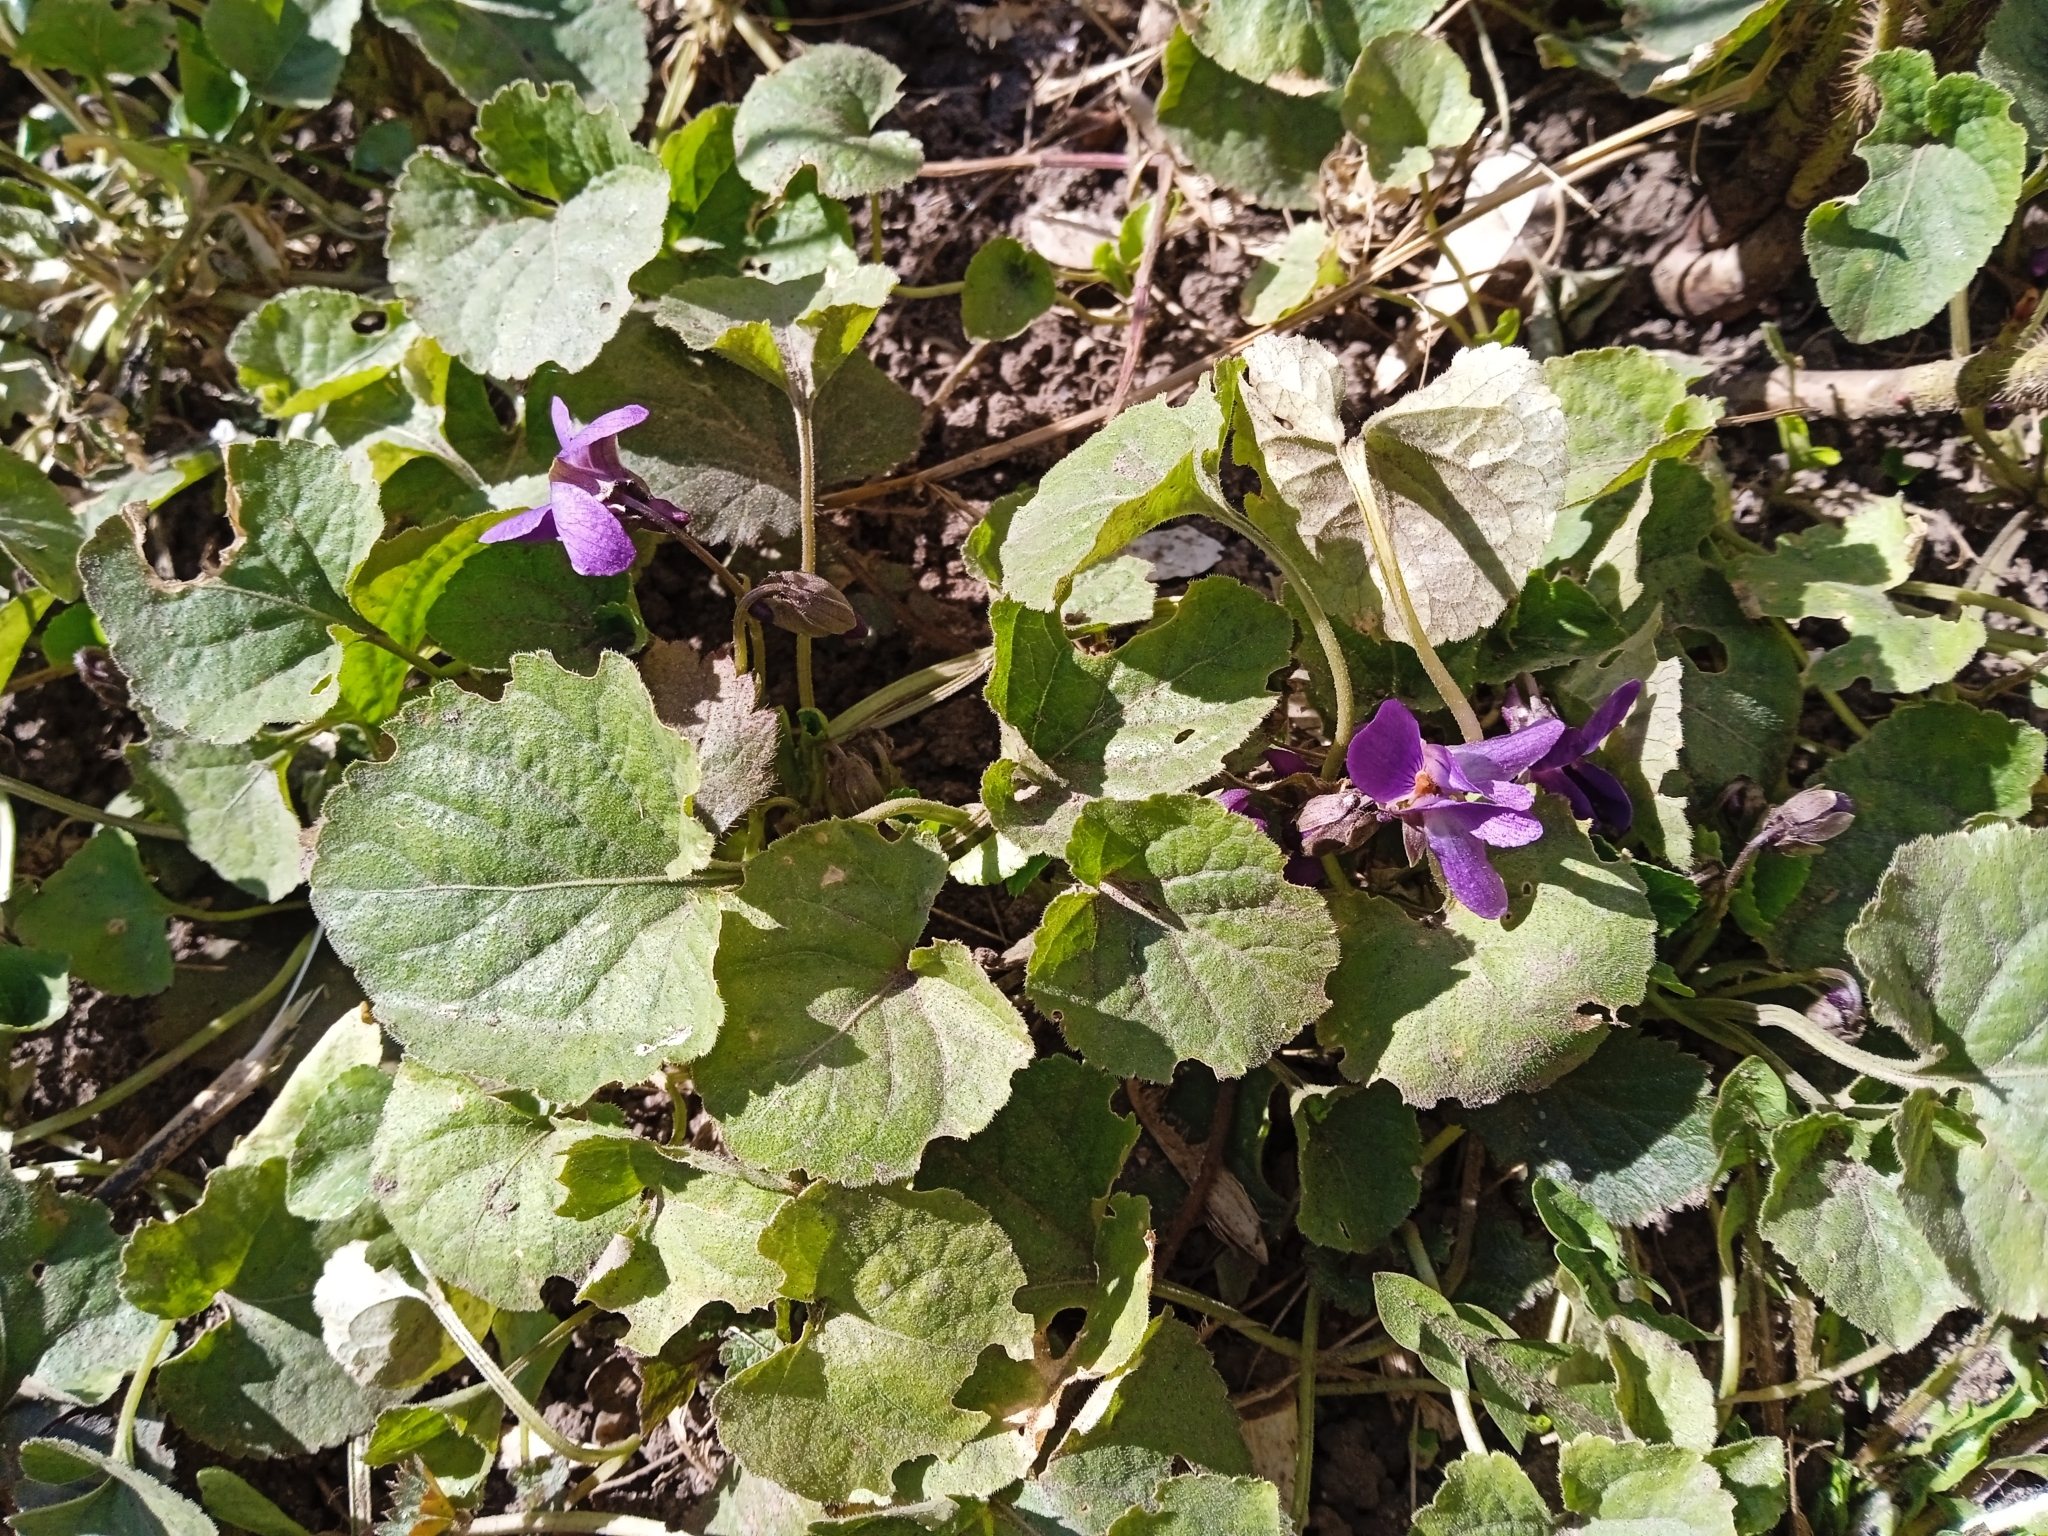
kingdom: Plantae
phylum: Tracheophyta
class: Magnoliopsida
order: Malpighiales
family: Violaceae
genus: Viola
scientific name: Viola odorata
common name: Sweet violet
